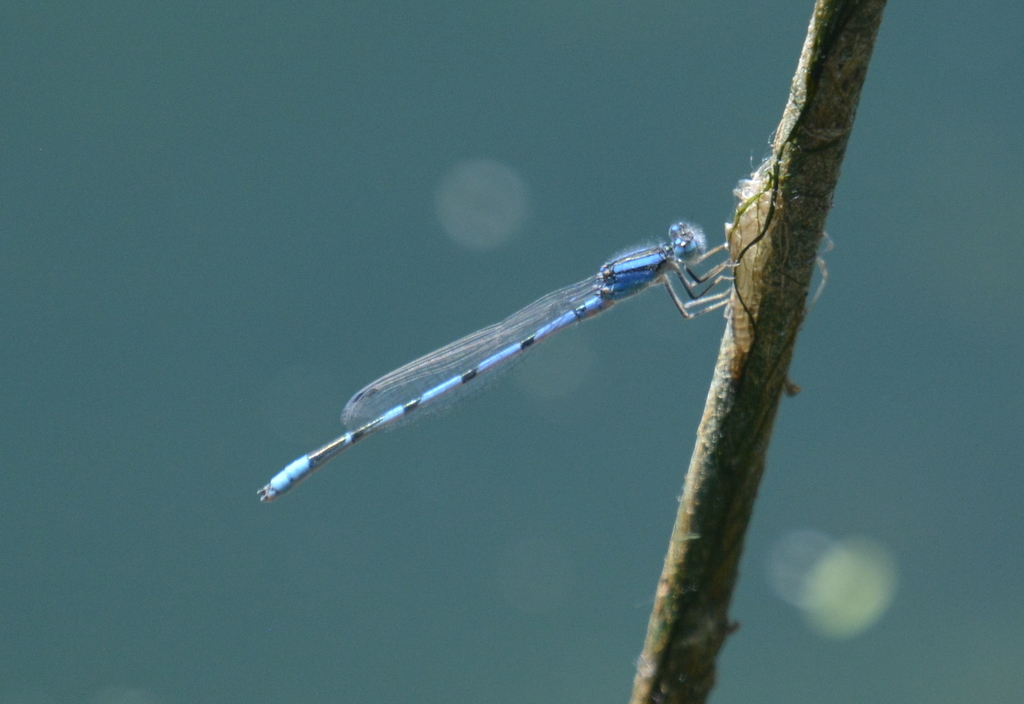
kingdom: Animalia
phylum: Arthropoda
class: Insecta
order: Odonata
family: Coenagrionidae
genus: Enallagma
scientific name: Enallagma civile
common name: Damselfly
